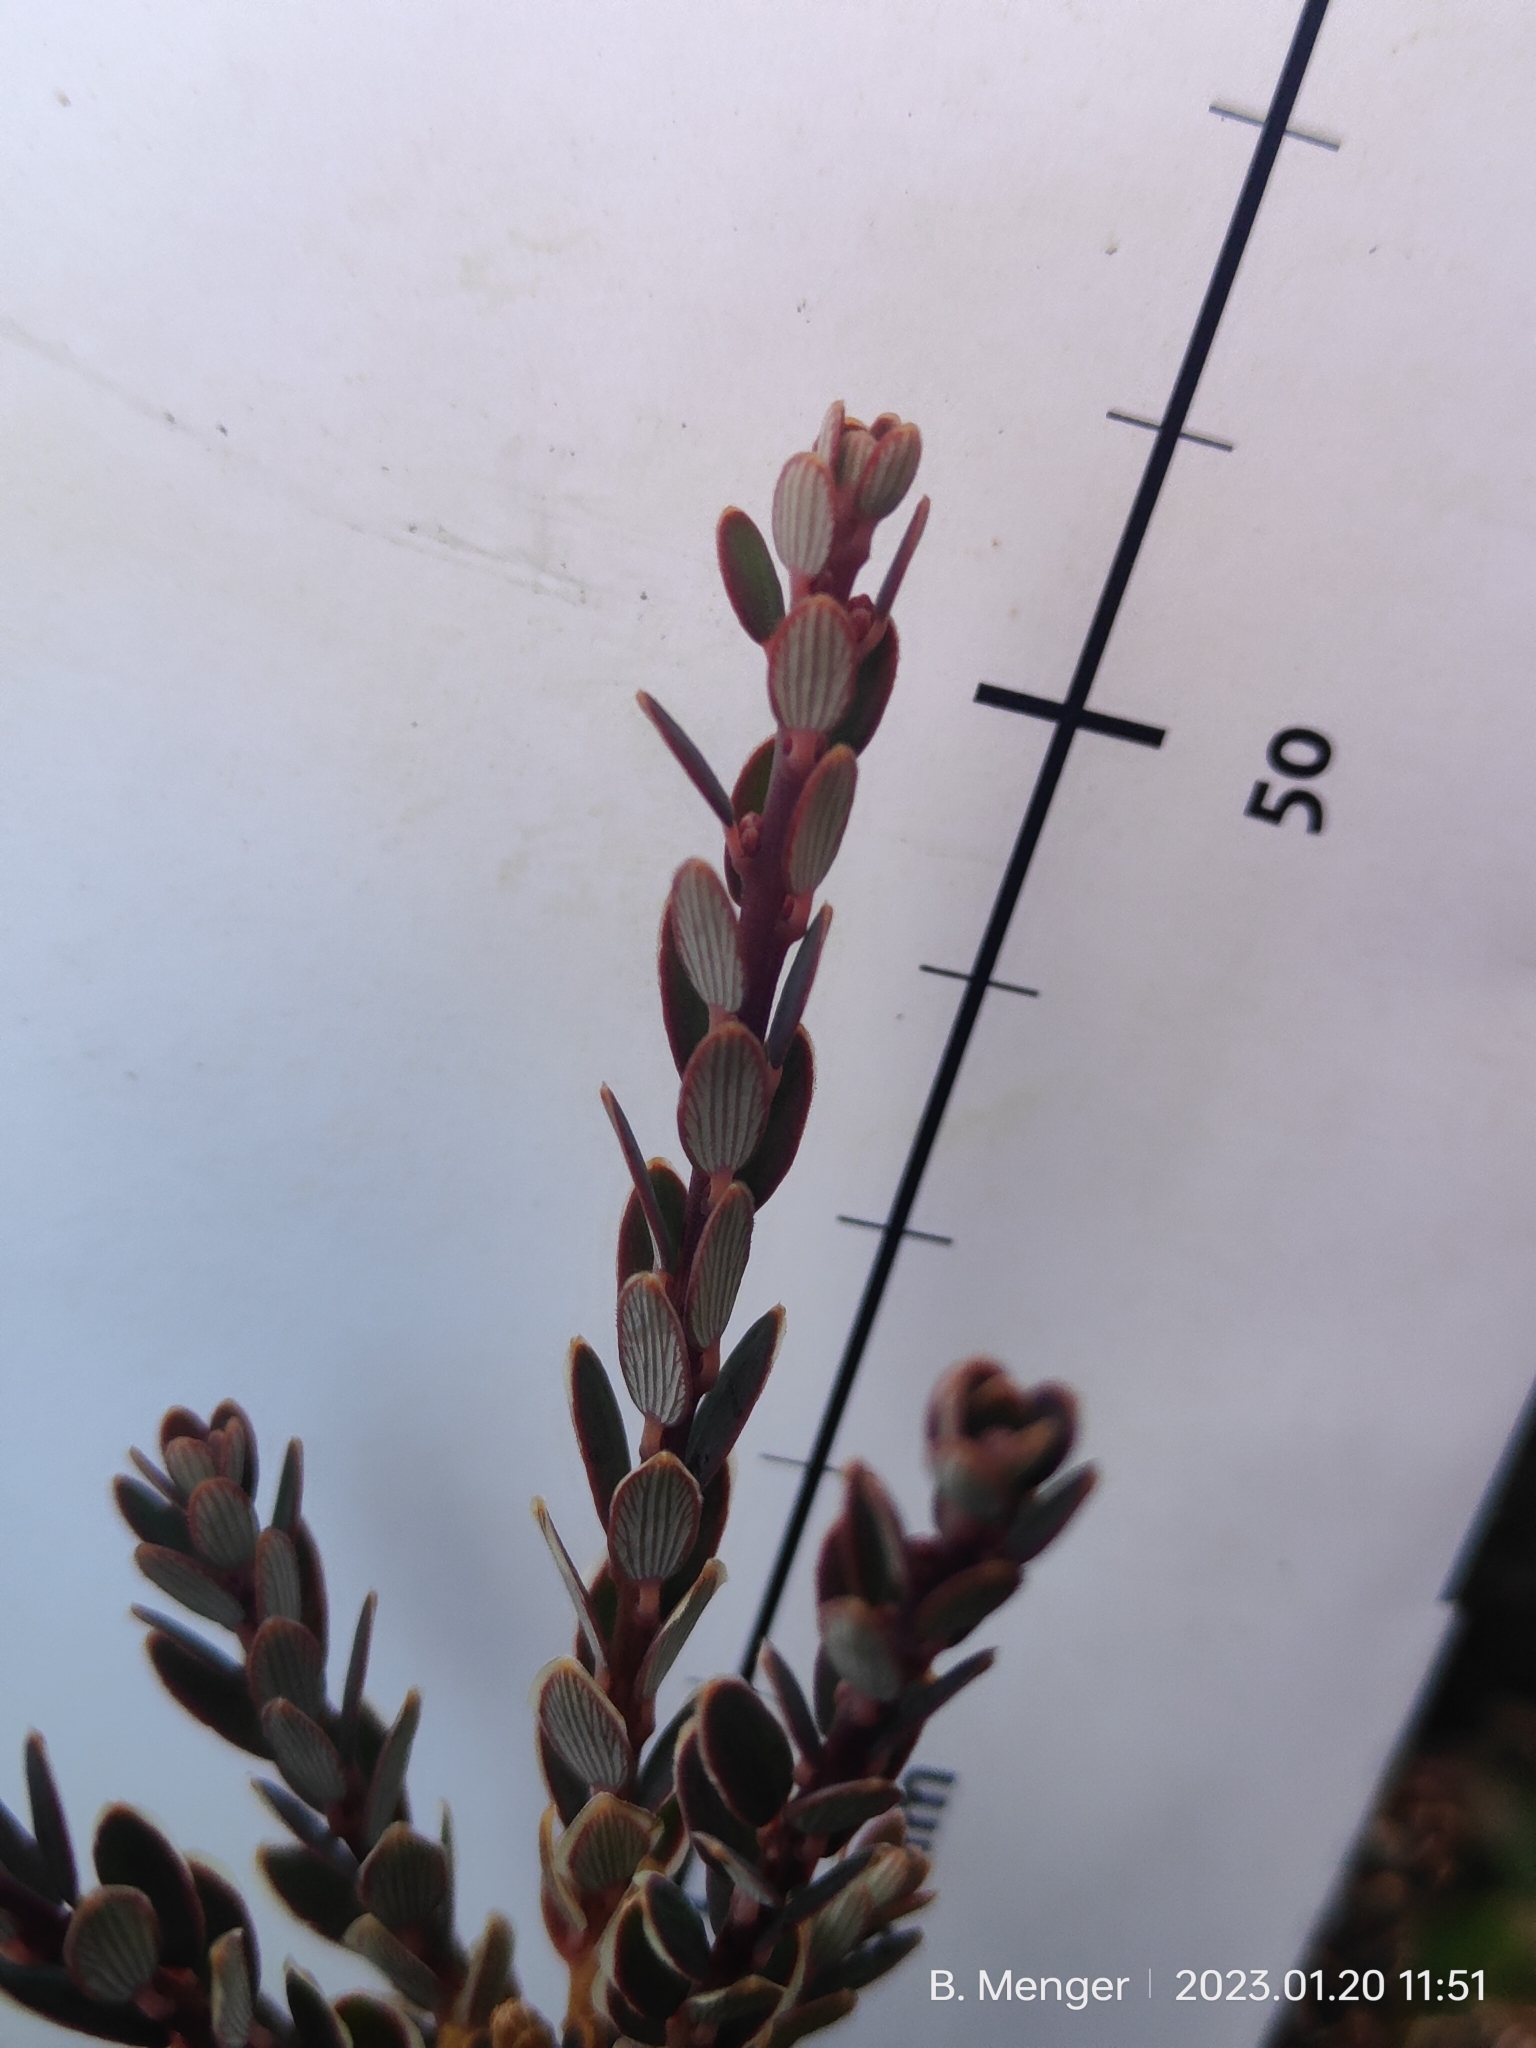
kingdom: Plantae
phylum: Tracheophyta
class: Magnoliopsida
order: Ericales
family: Ericaceae
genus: Acrothamnus
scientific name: Acrothamnus colensoi
